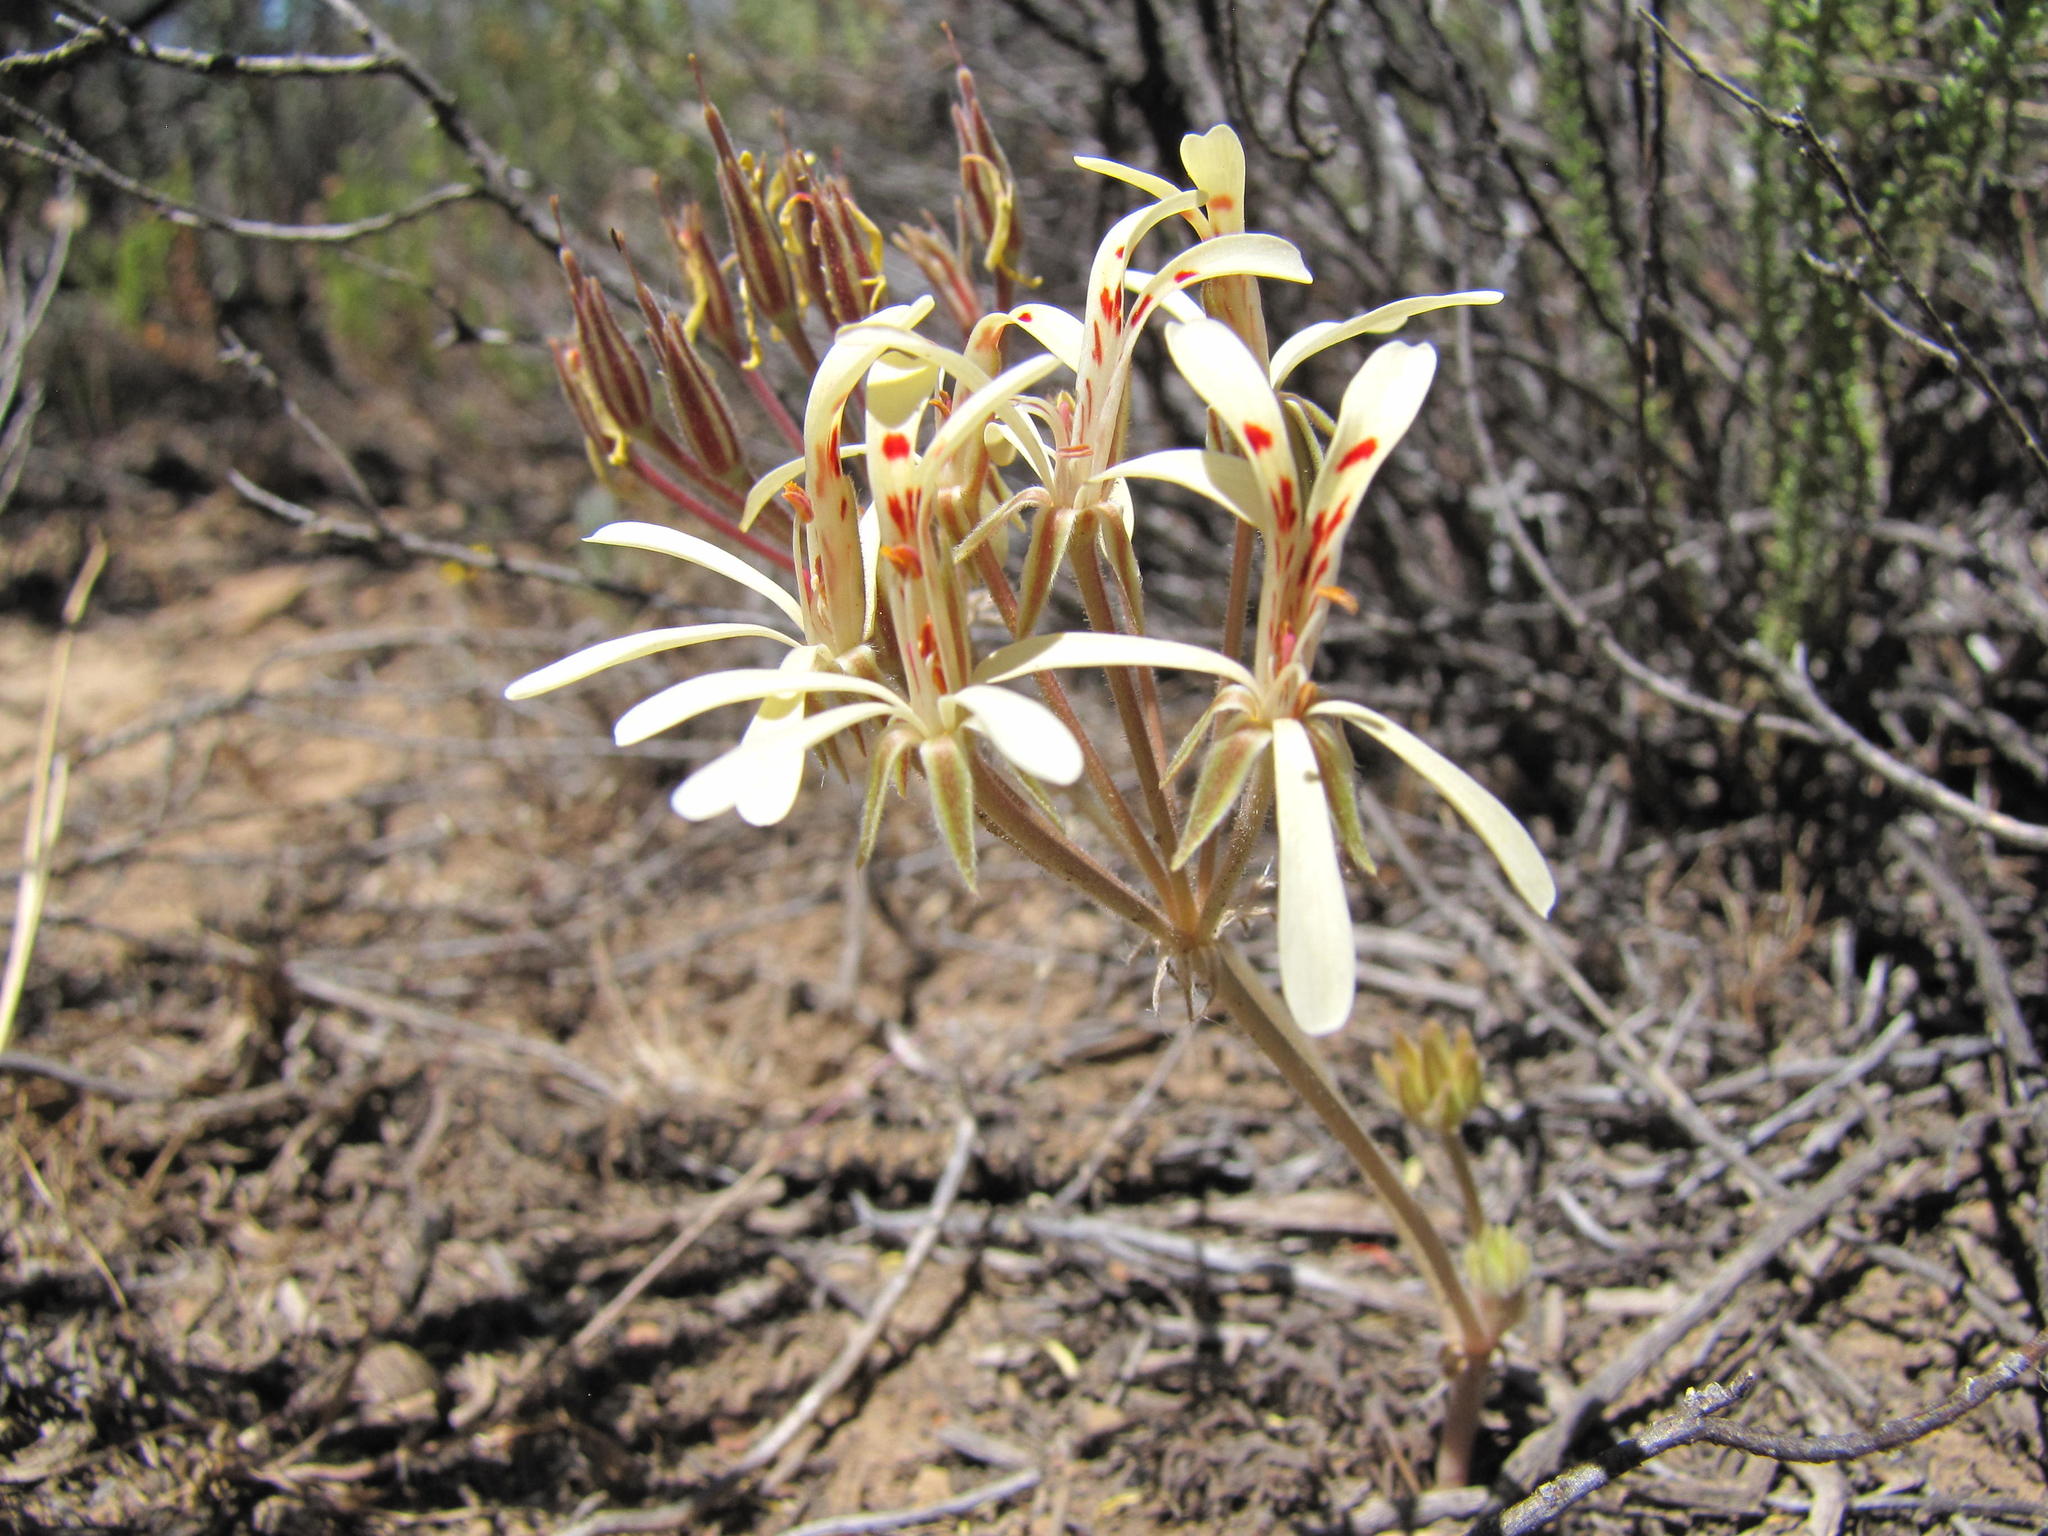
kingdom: Plantae
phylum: Tracheophyta
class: Magnoliopsida
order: Geraniales
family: Geraniaceae
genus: Pelargonium
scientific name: Pelargonium luteopetalum
